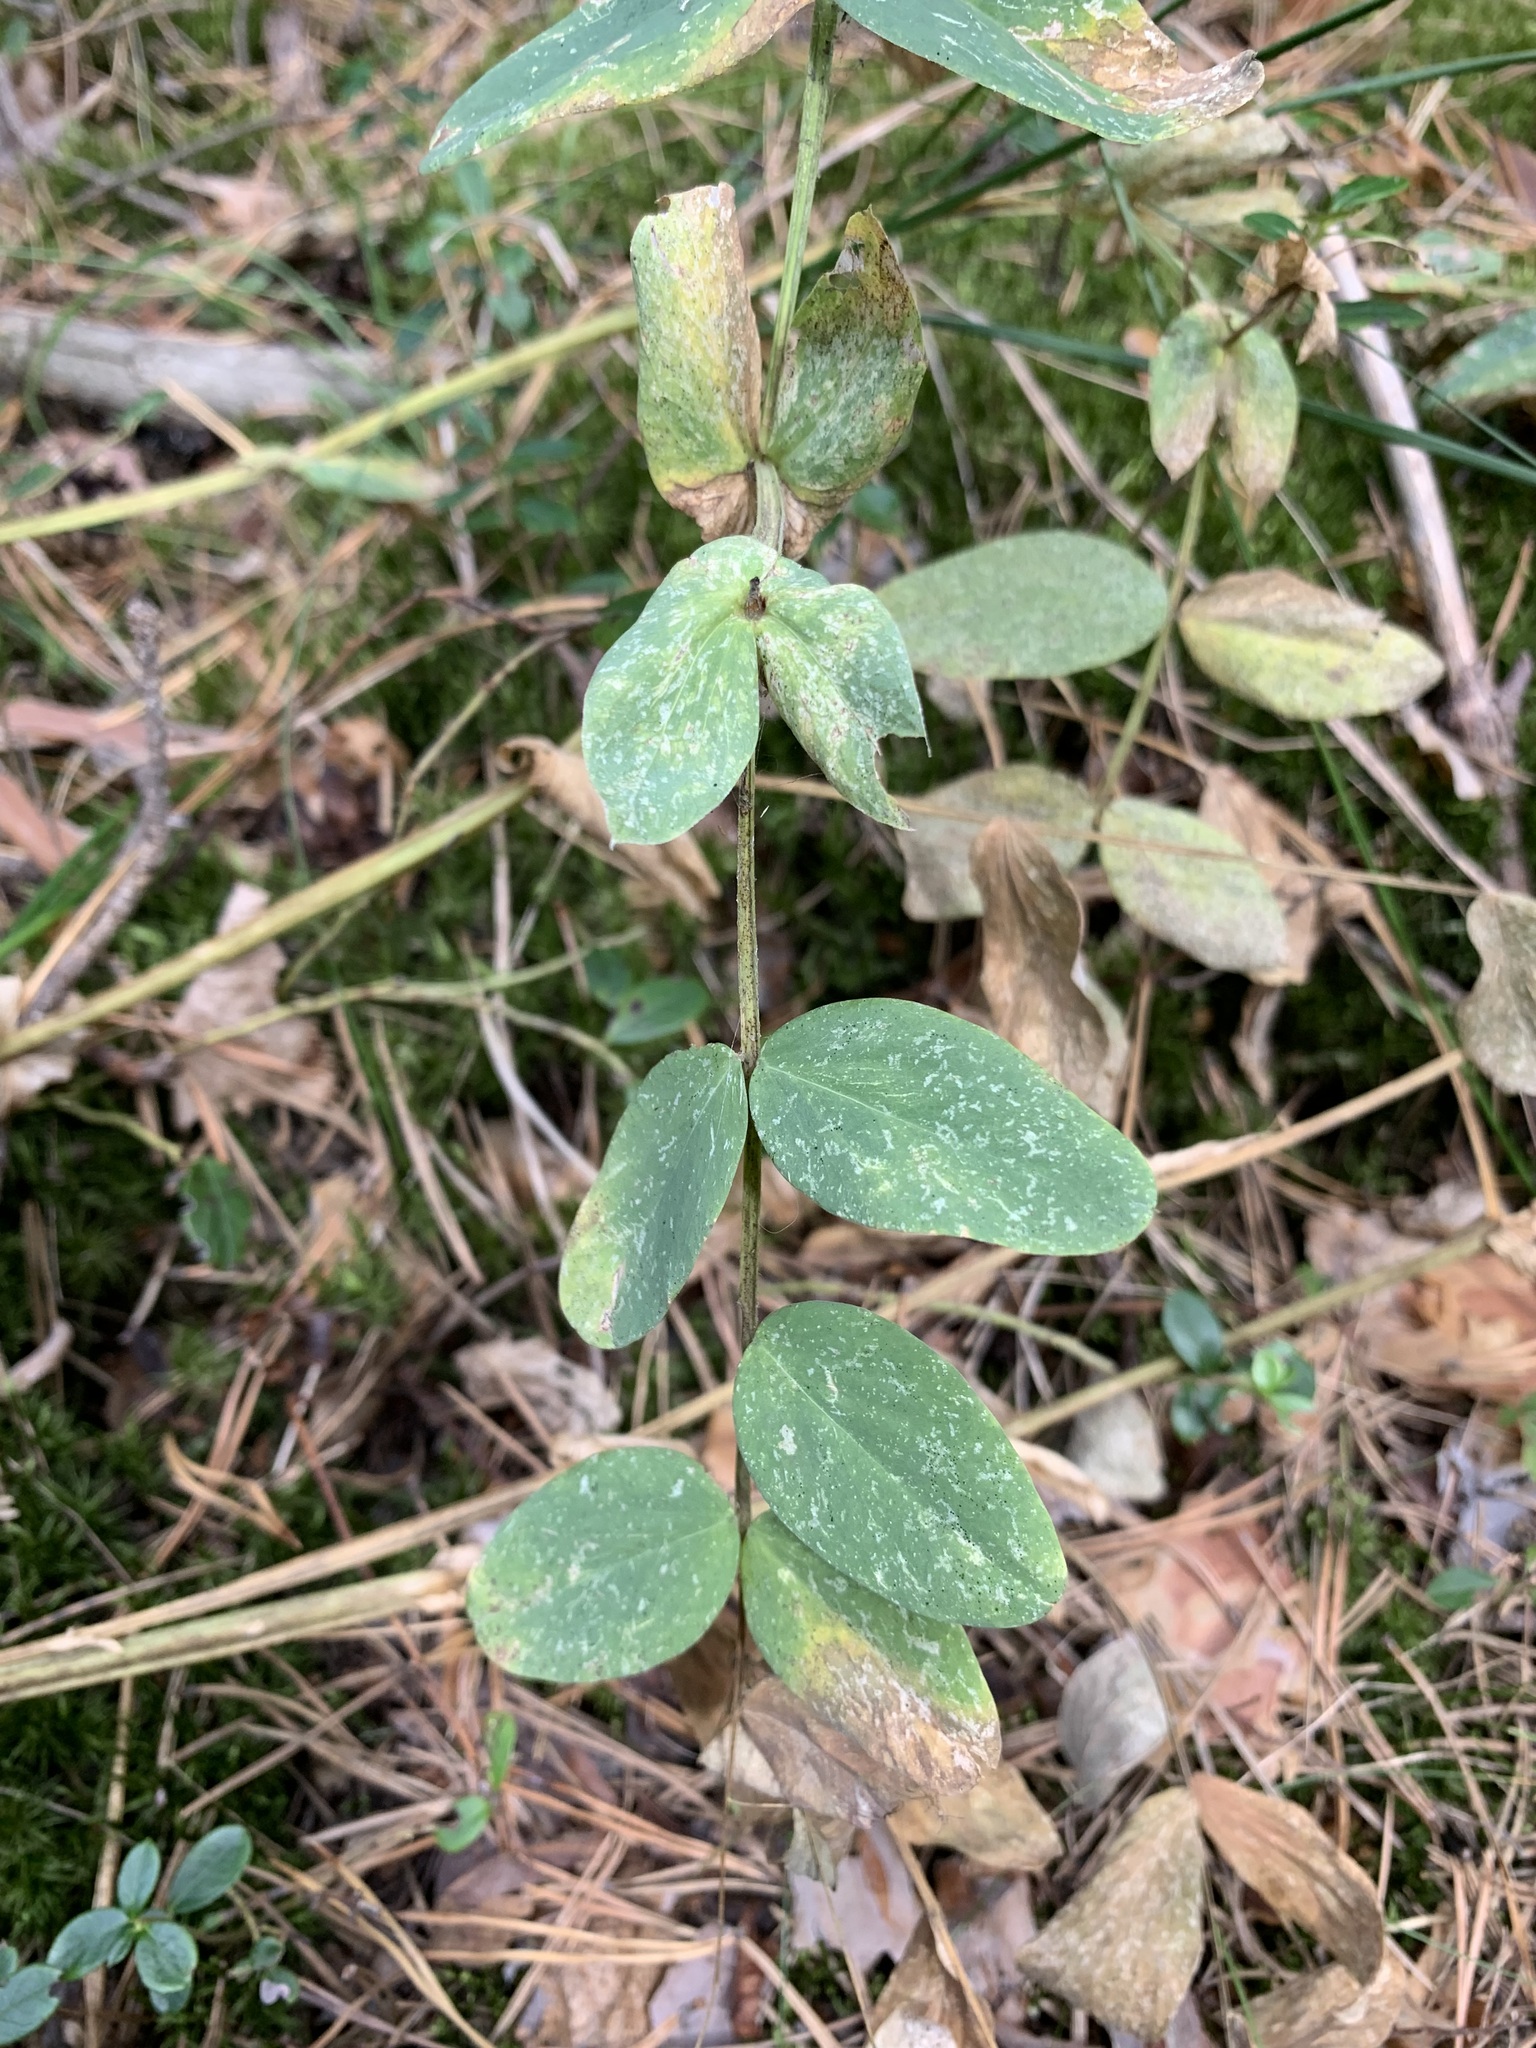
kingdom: Plantae
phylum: Tracheophyta
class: Magnoliopsida
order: Fabales
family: Fabaceae
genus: Lathyrus
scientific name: Lathyrus pisiformis
